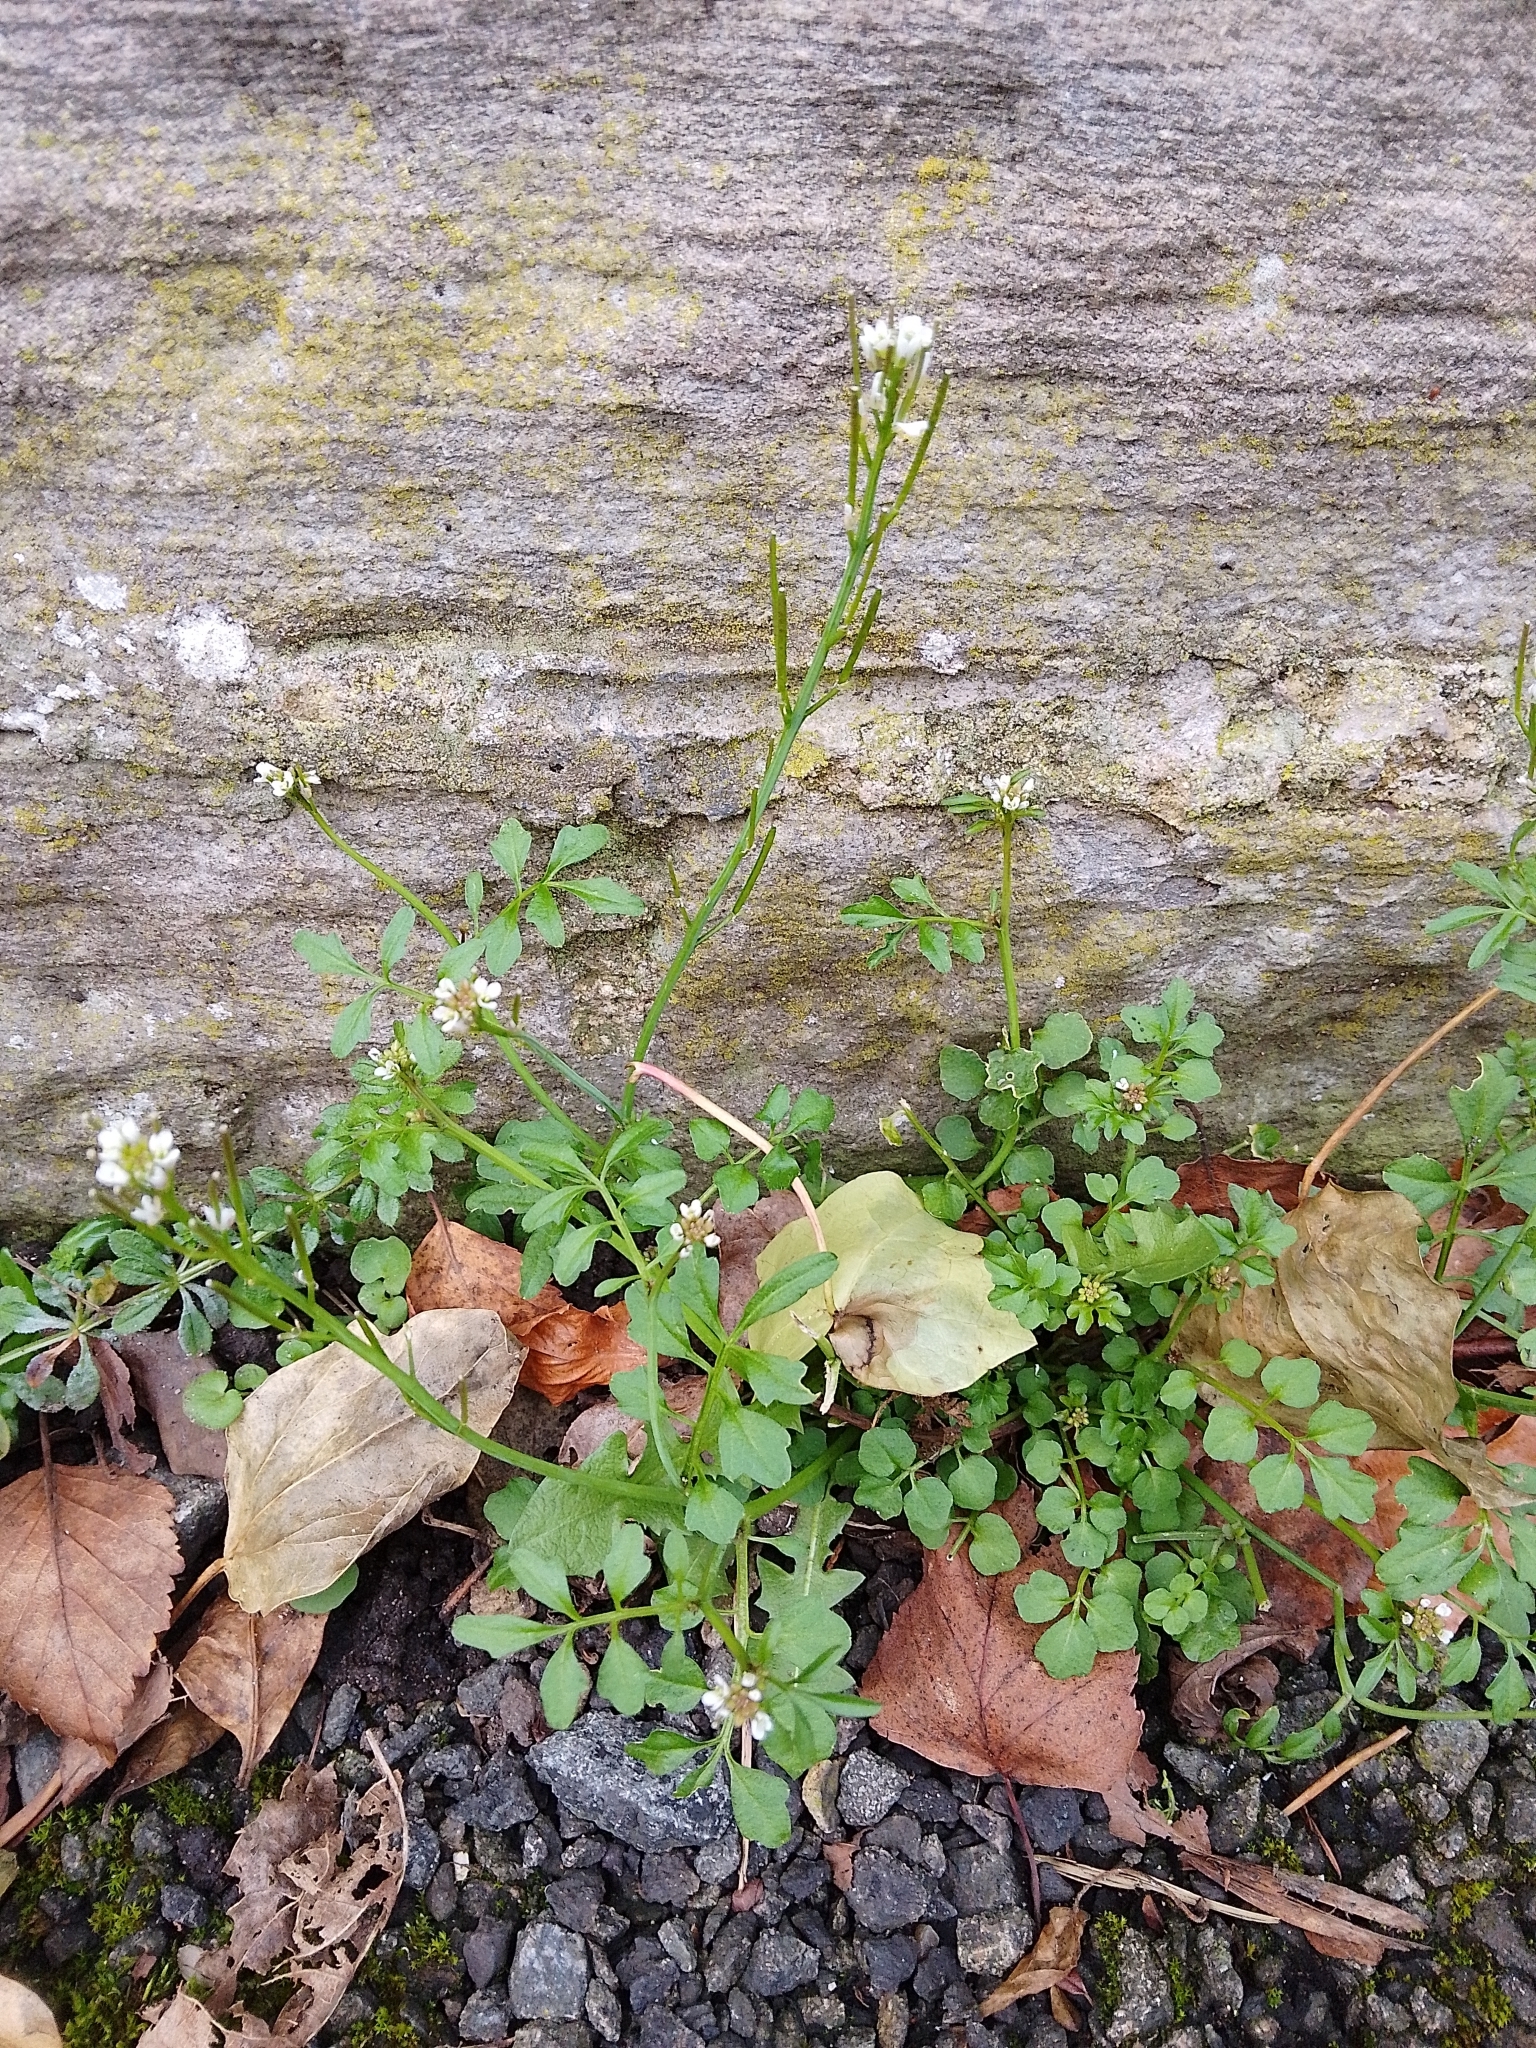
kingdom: Plantae
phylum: Tracheophyta
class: Magnoliopsida
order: Brassicales
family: Brassicaceae
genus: Cardamine
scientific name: Cardamine flexuosa
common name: Woodland bittercress
